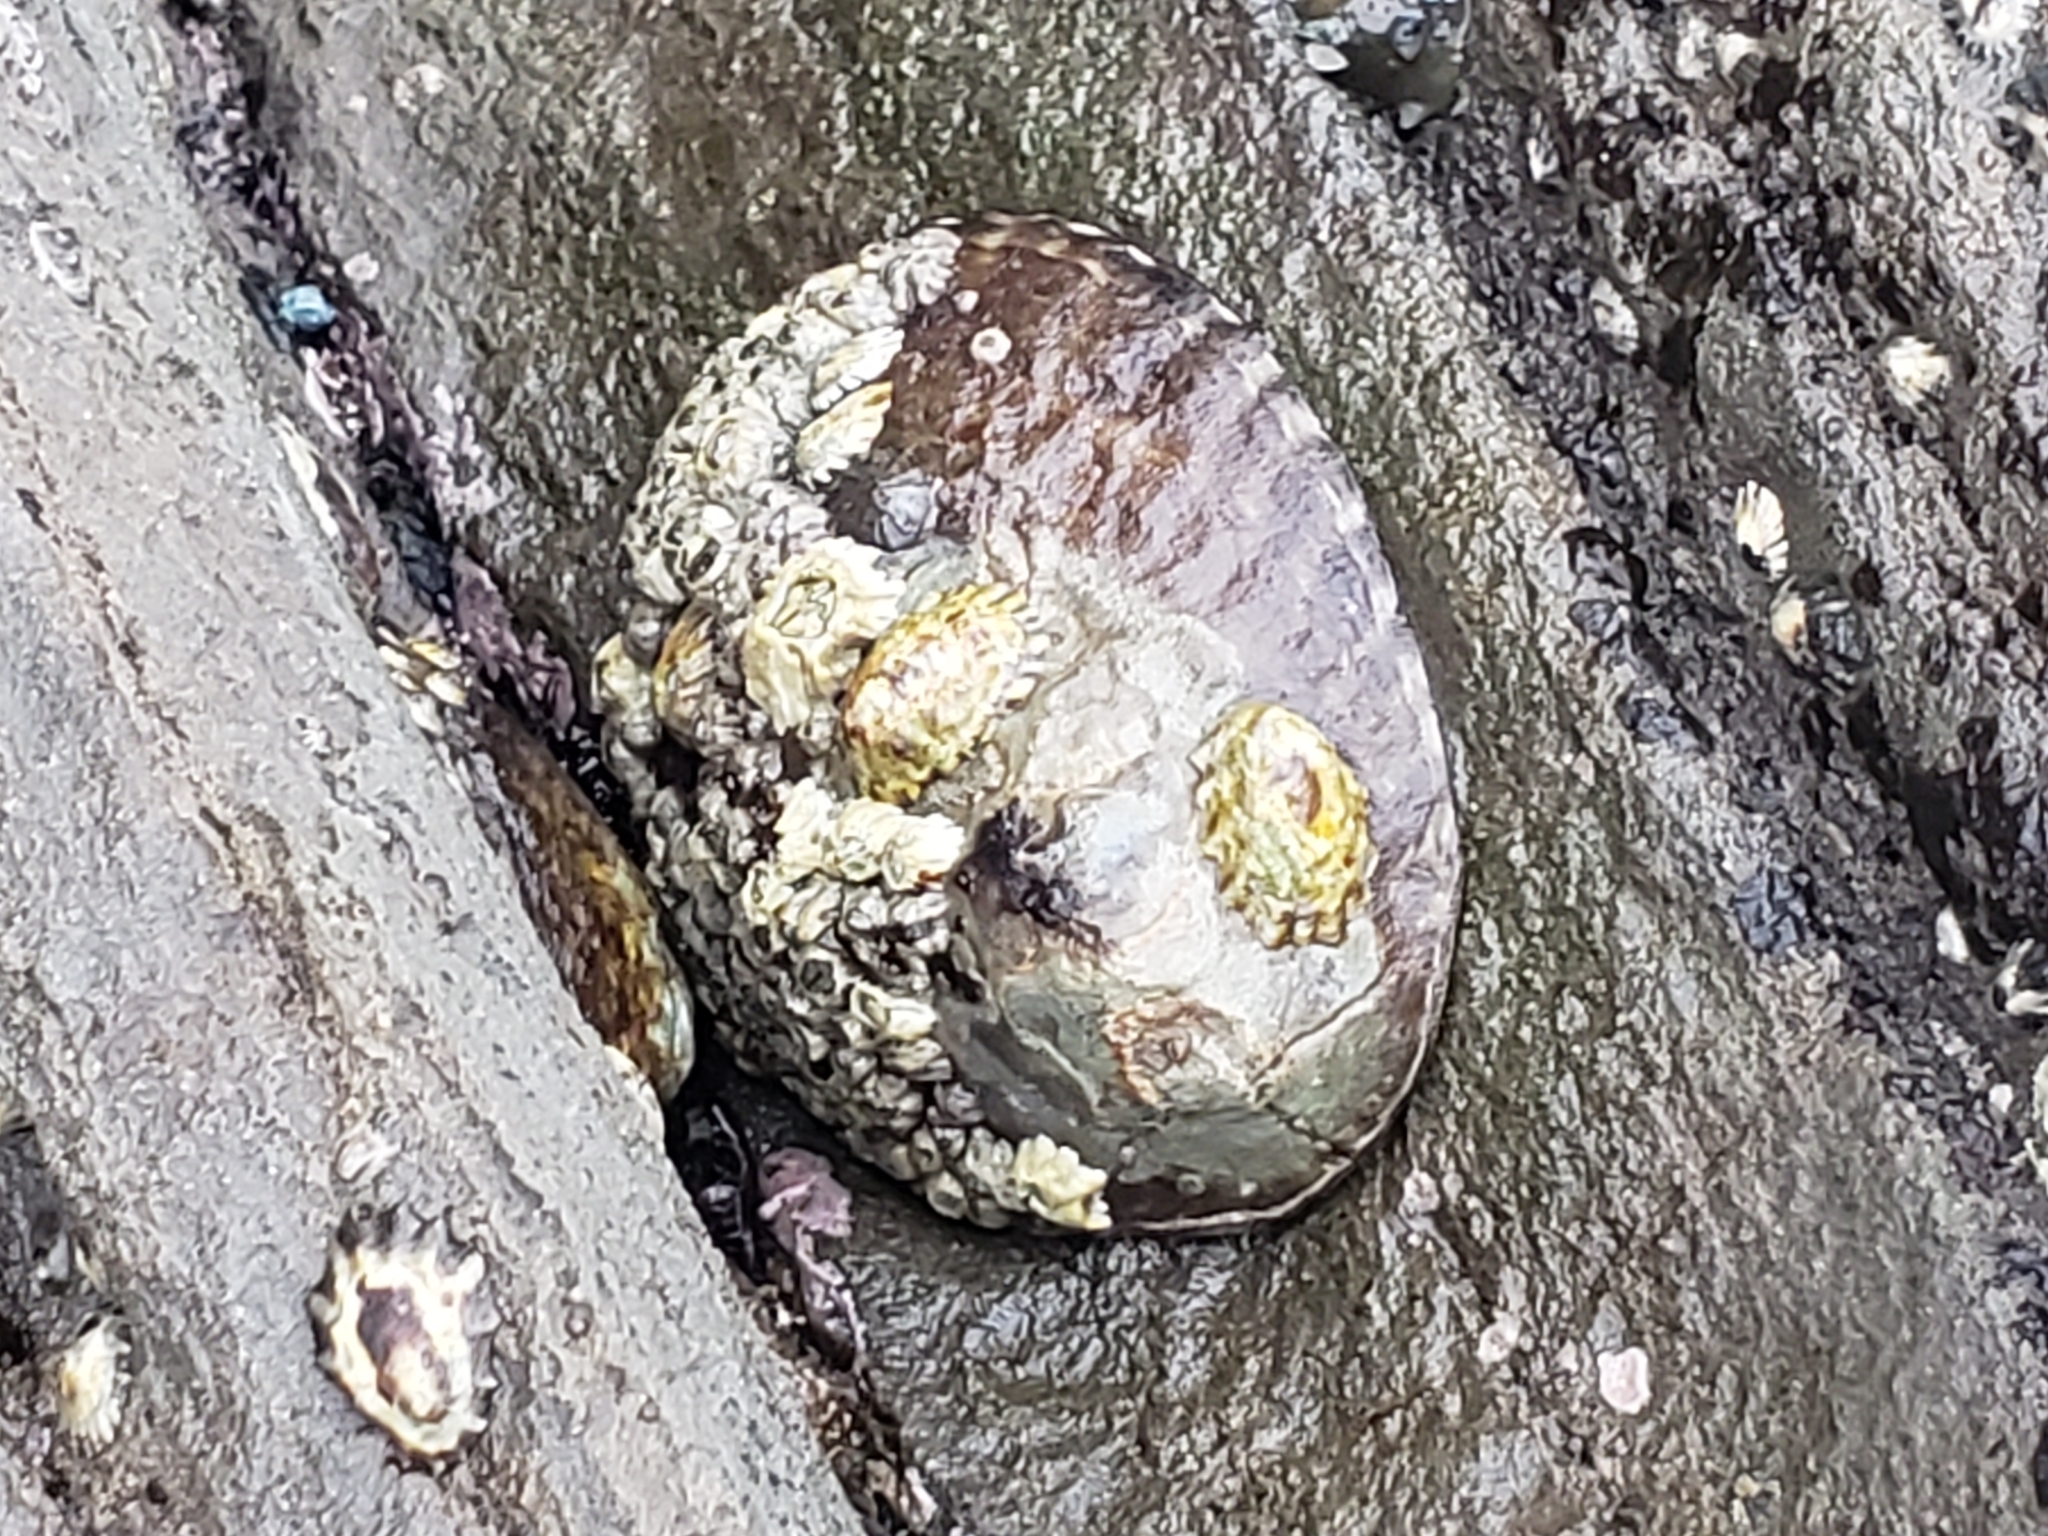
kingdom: Animalia
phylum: Mollusca
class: Gastropoda
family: Lottiidae
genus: Lottia
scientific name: Lottia gigantea
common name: Owl limpet
